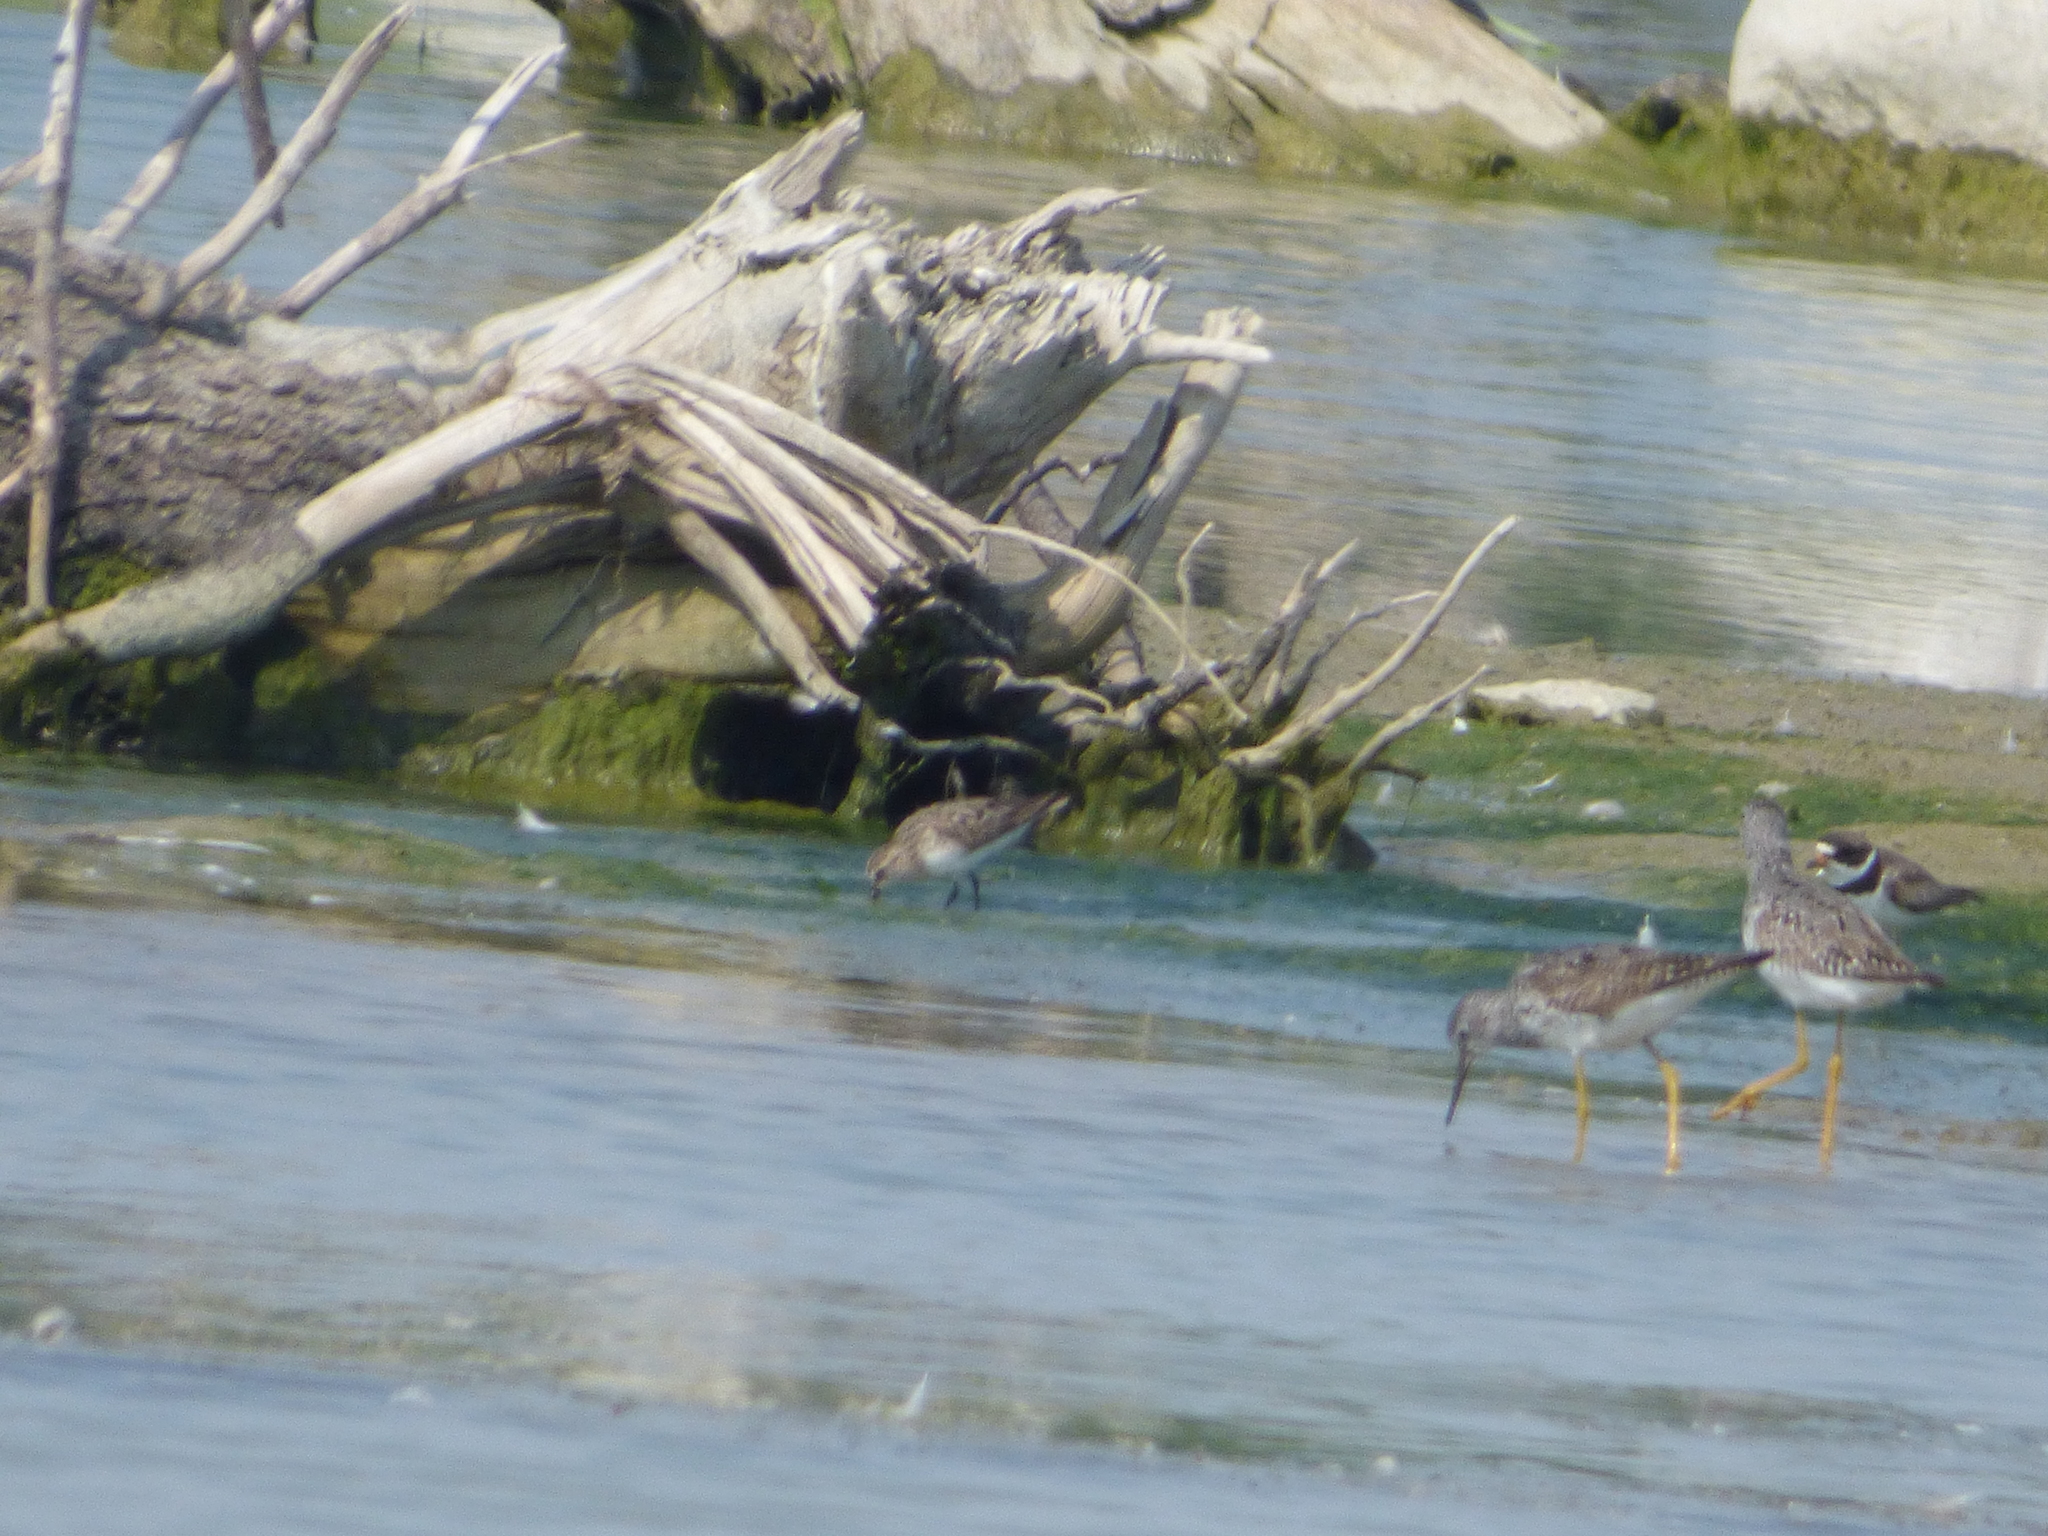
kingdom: Animalia
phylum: Chordata
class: Aves
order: Charadriiformes
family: Scolopacidae
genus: Tringa
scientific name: Tringa flavipes
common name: Lesser yellowlegs
